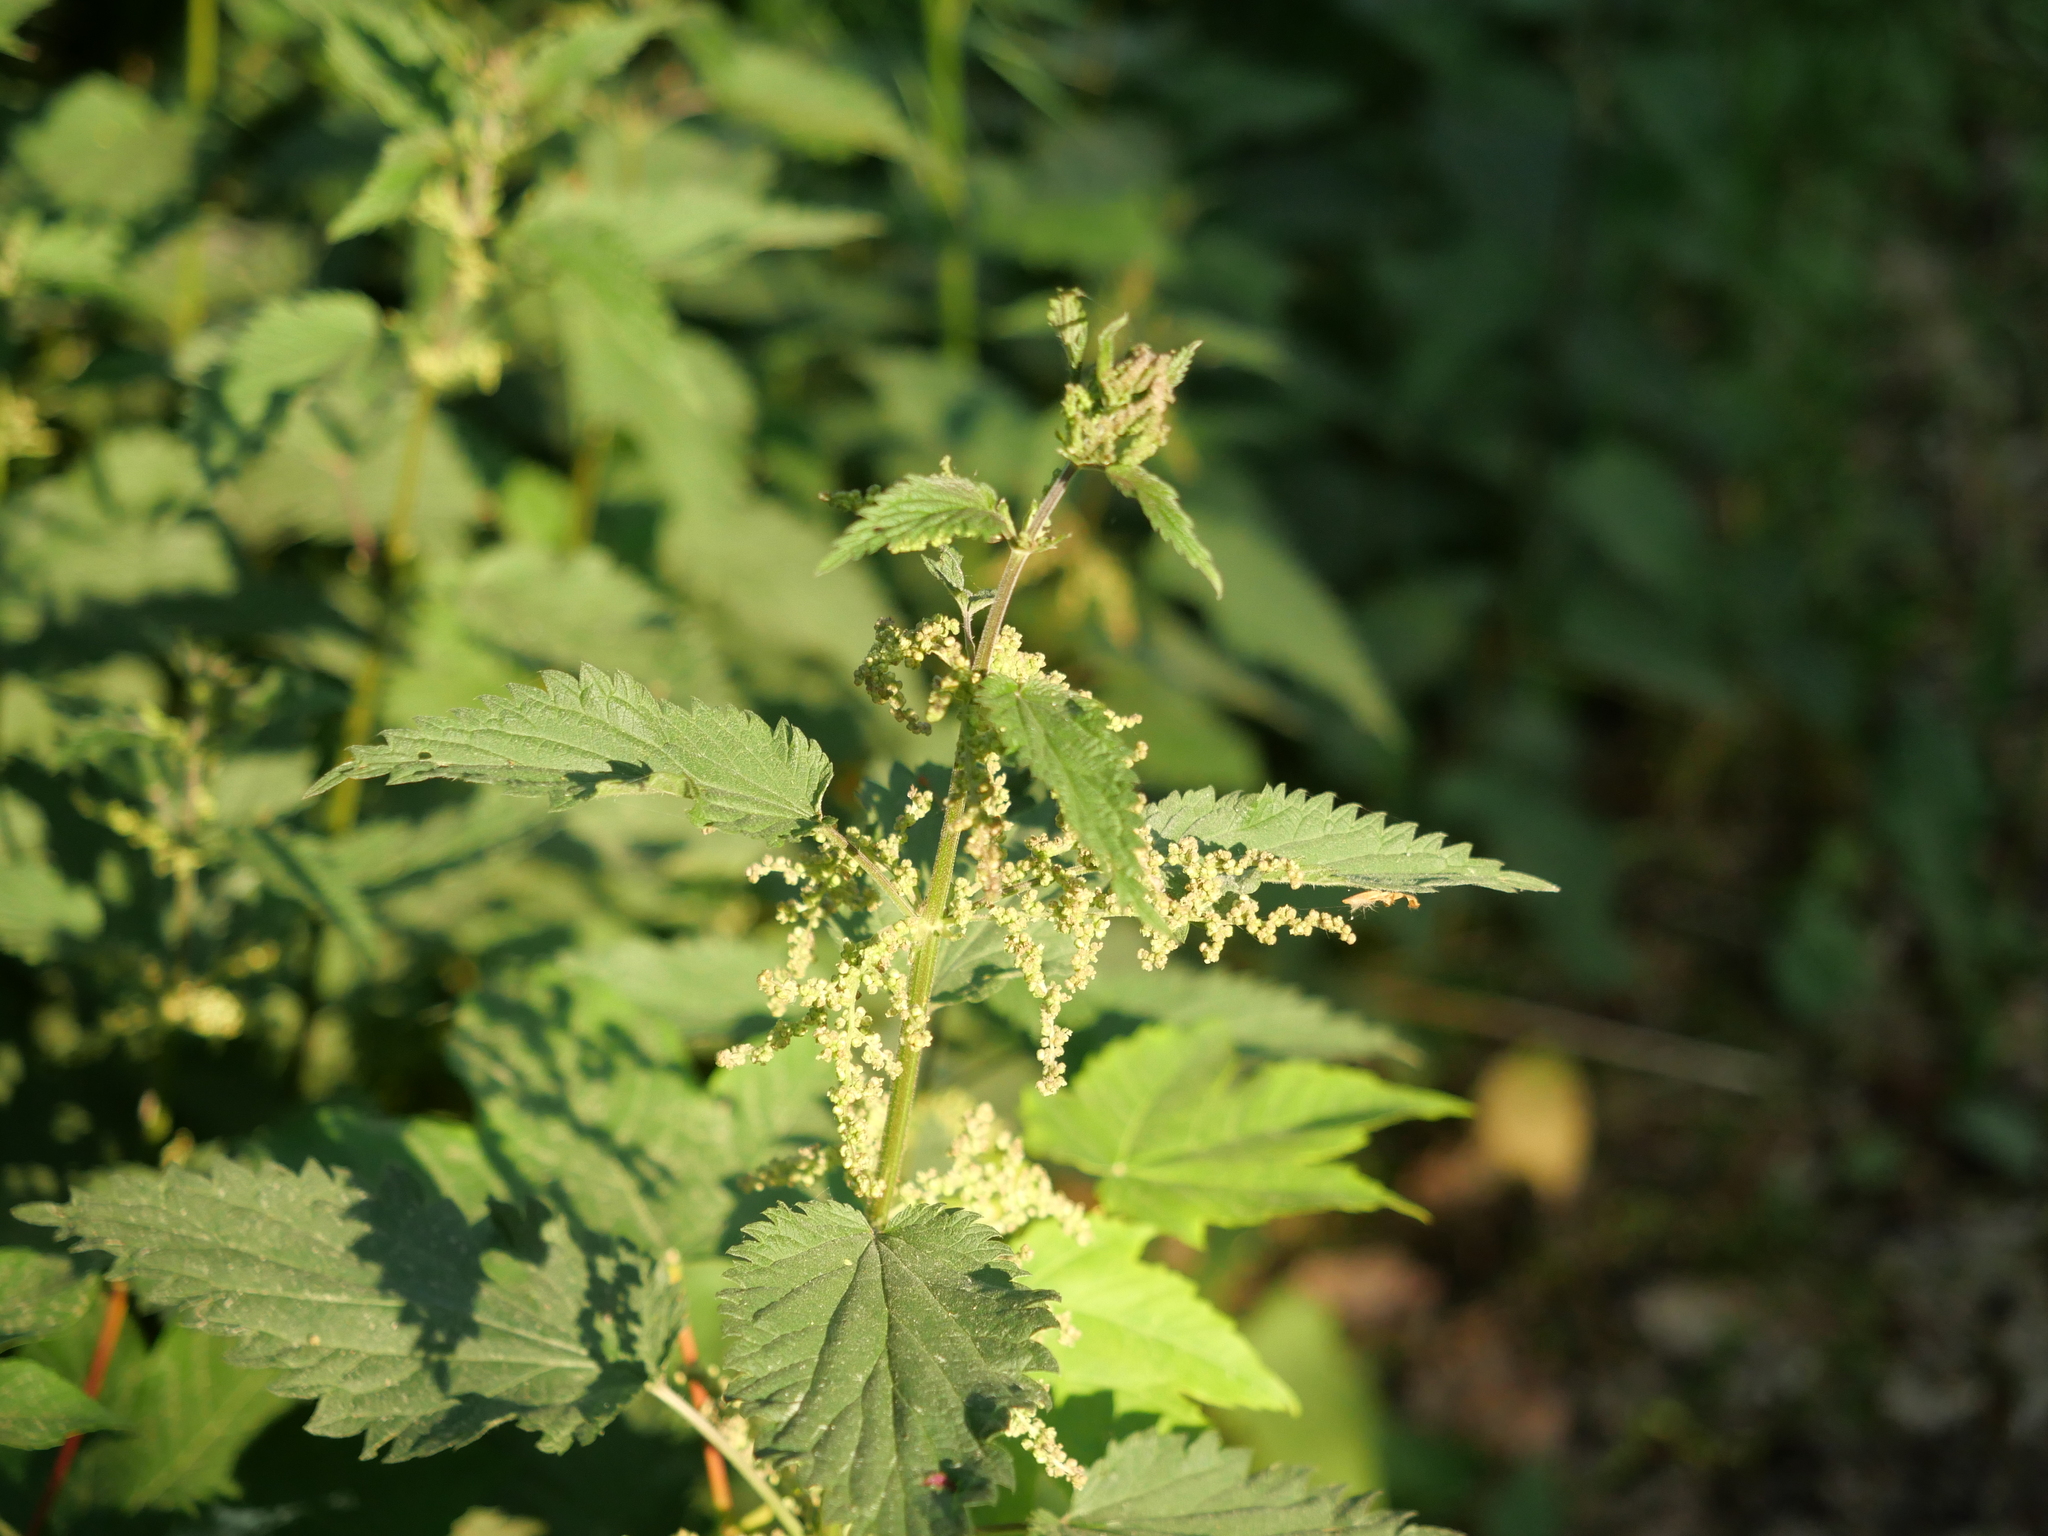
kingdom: Plantae
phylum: Tracheophyta
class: Magnoliopsida
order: Rosales
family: Urticaceae
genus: Urtica
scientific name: Urtica dioica
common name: Common nettle
